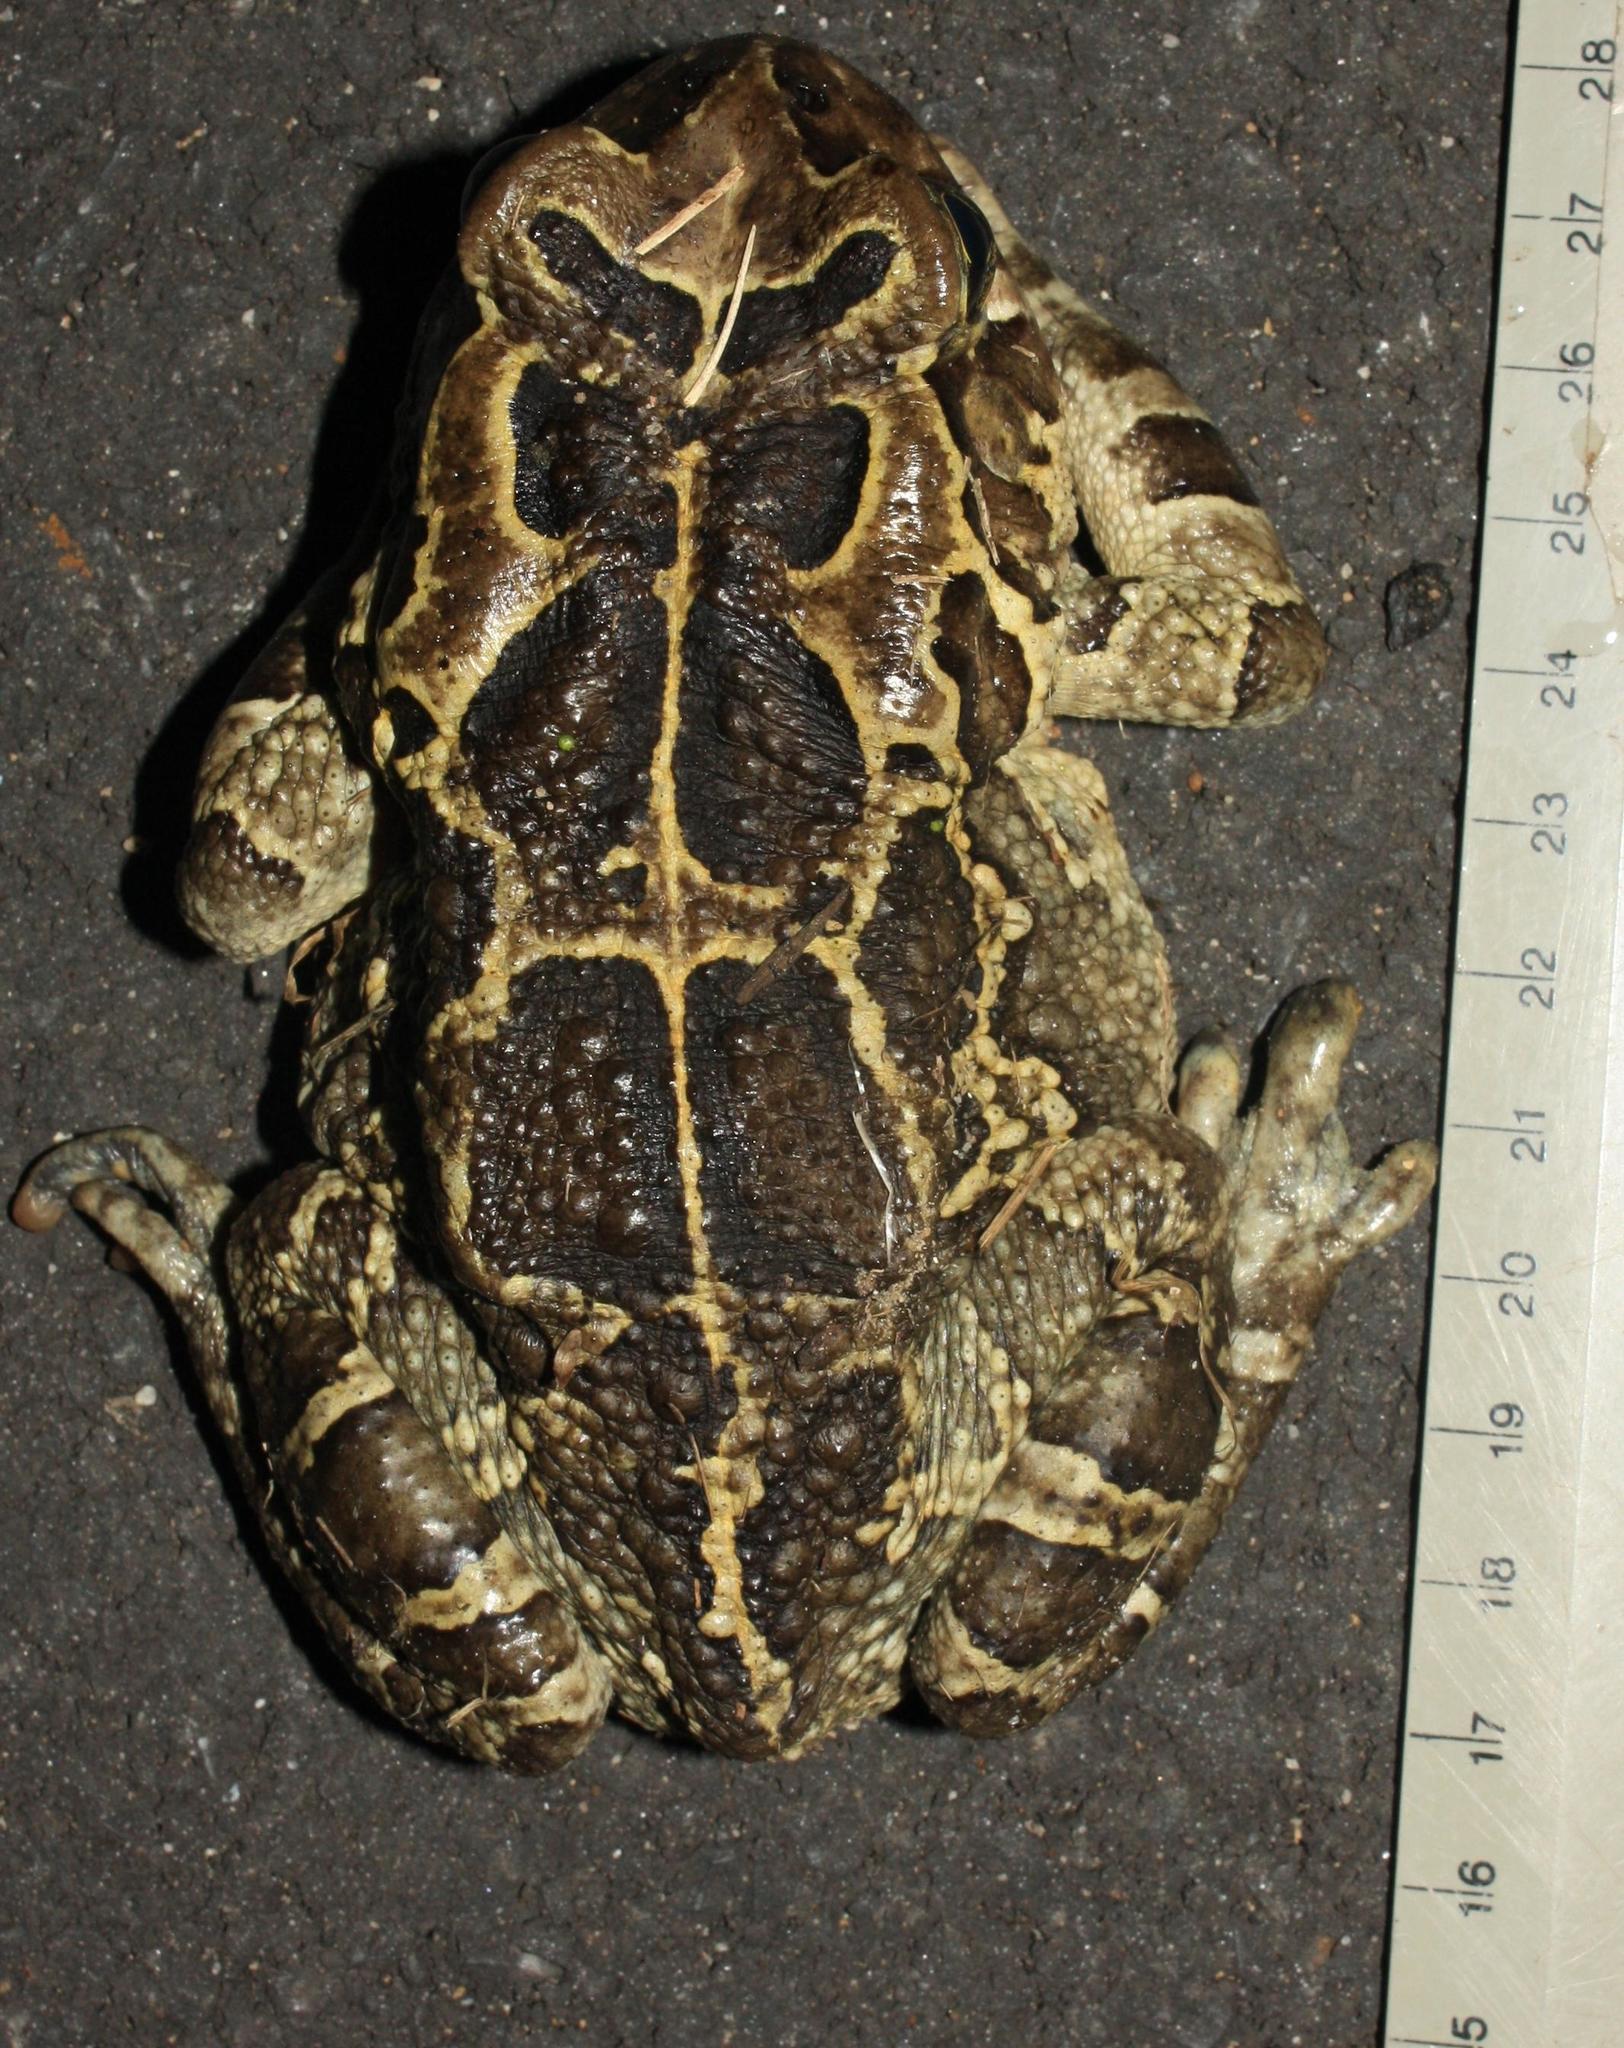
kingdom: Animalia
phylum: Chordata
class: Amphibia
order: Anura
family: Bufonidae
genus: Sclerophrys
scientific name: Sclerophrys pantherina
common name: Panther toad
